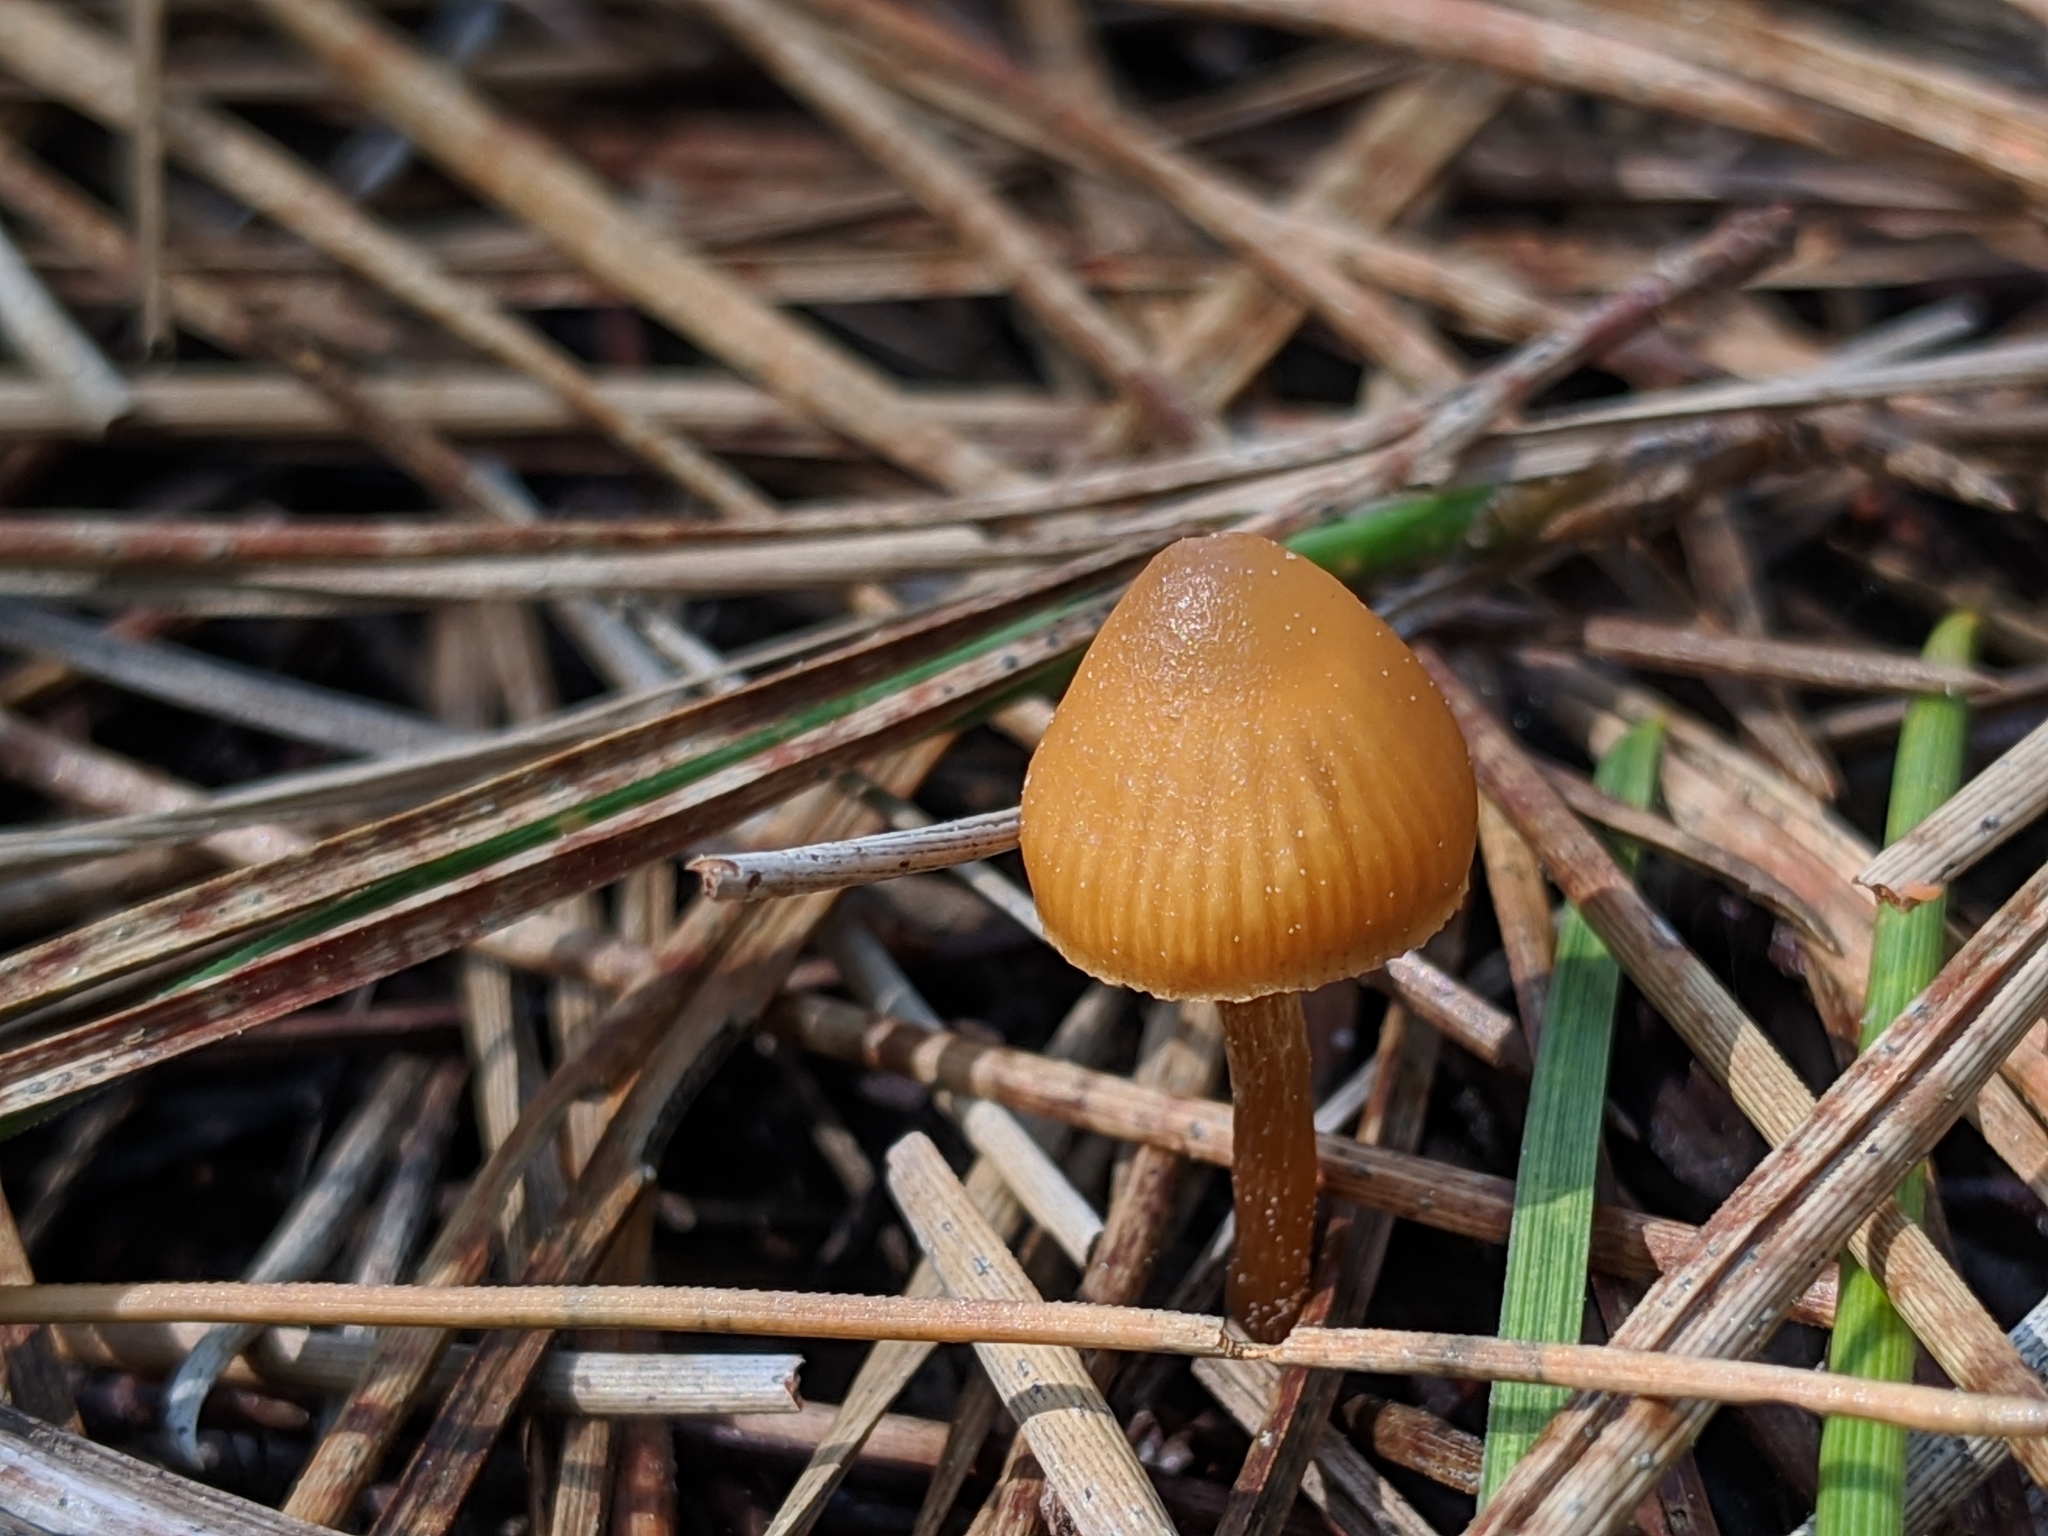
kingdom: Fungi
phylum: Basidiomycota
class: Agaricomycetes
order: Agaricales
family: Hymenogastraceae
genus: Galerina
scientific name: Galerina badipes
